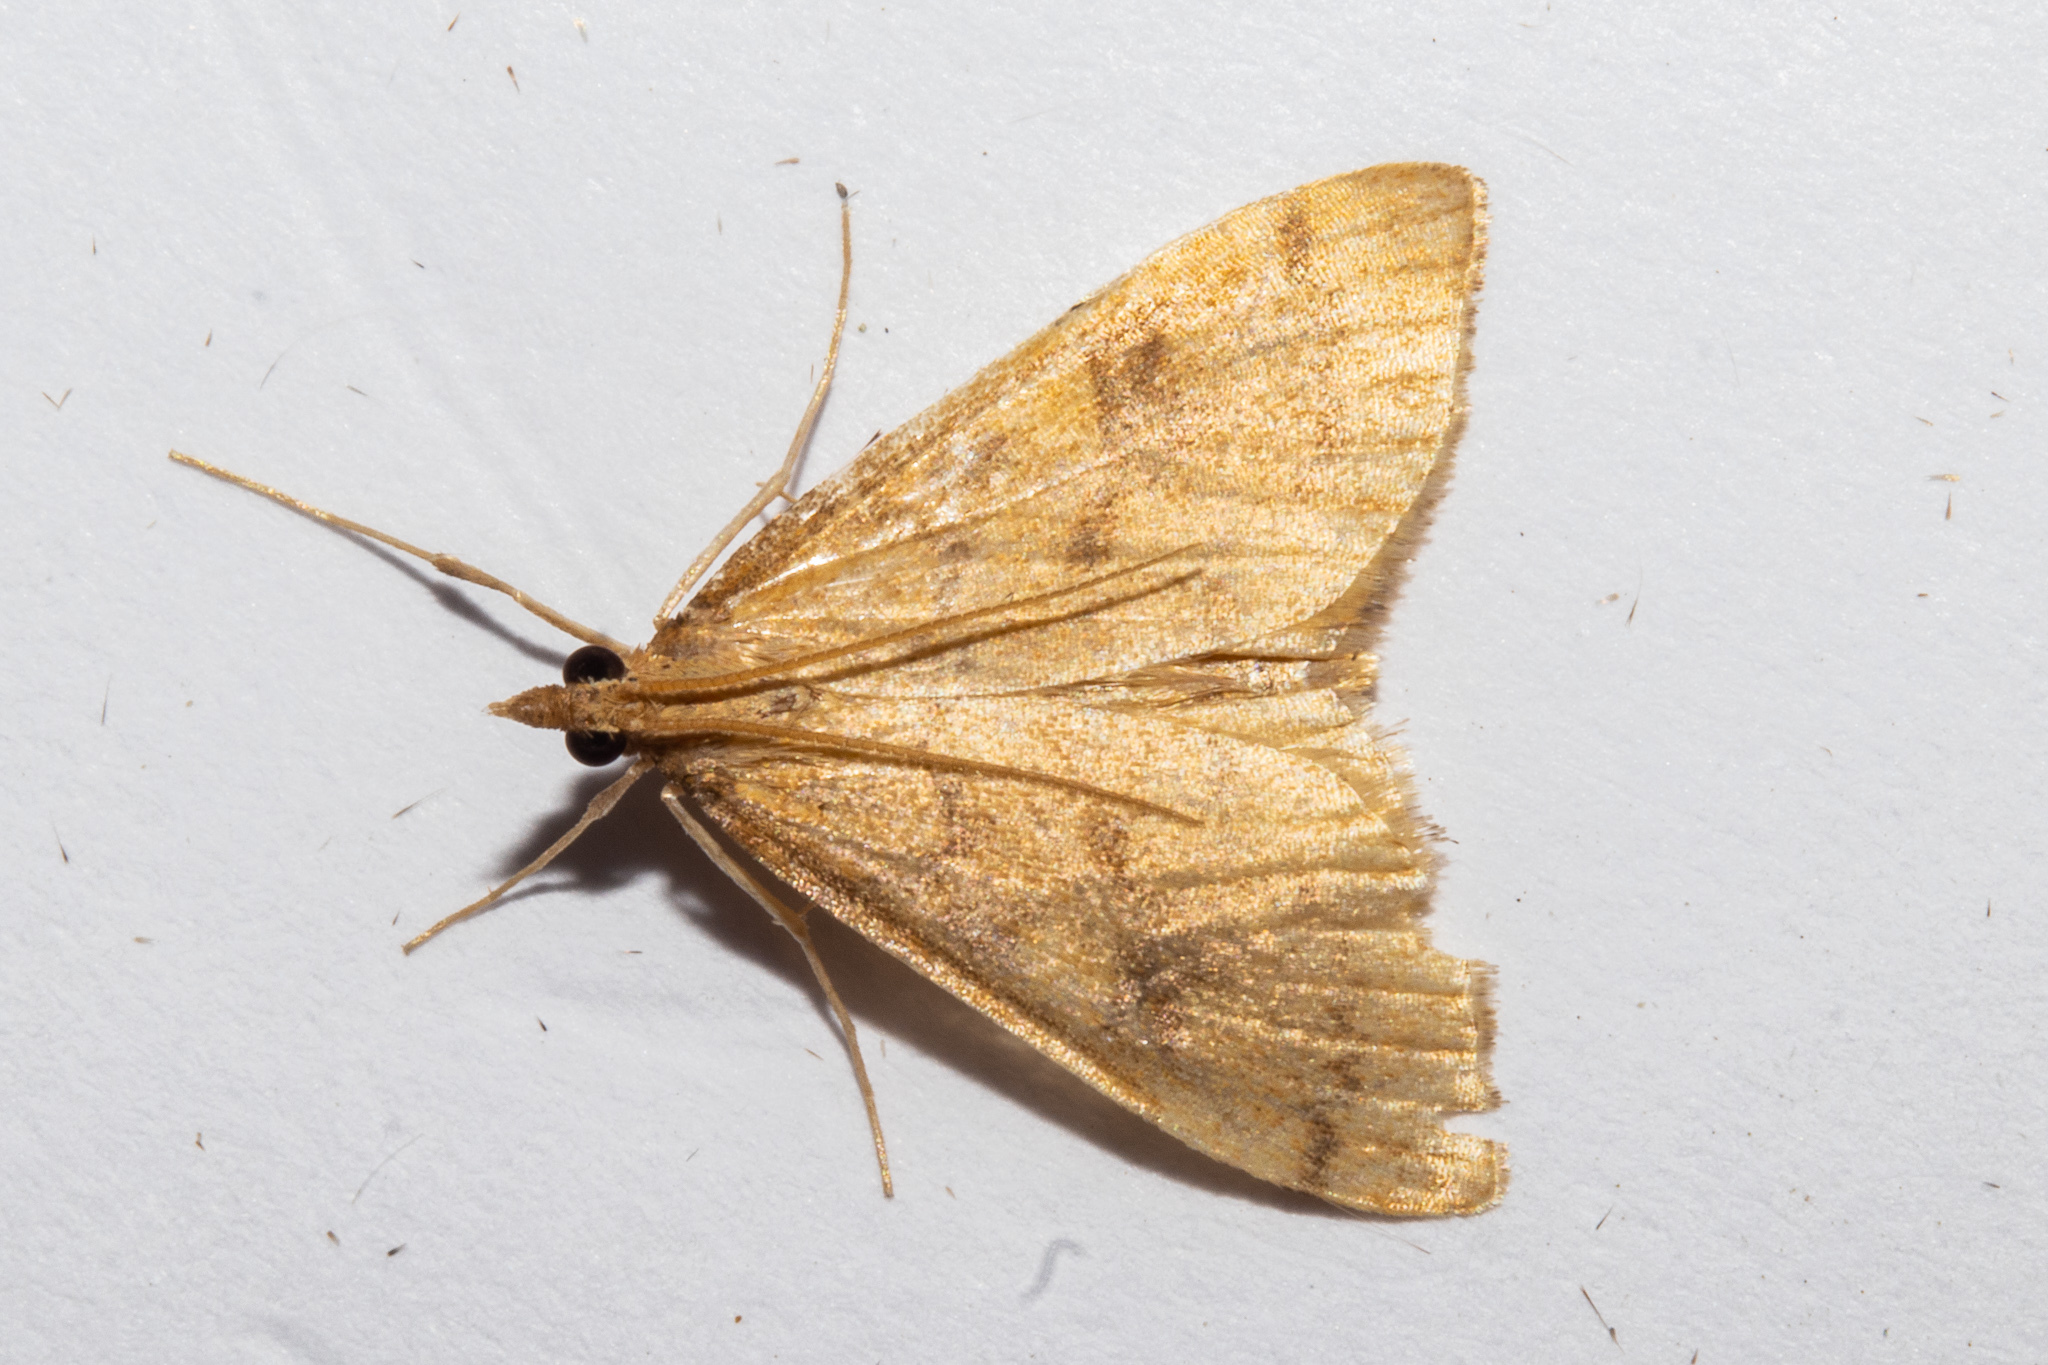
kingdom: Animalia
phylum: Arthropoda
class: Insecta
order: Lepidoptera
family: Crambidae
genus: Udea
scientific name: Udea Mnesictena flavidalis
